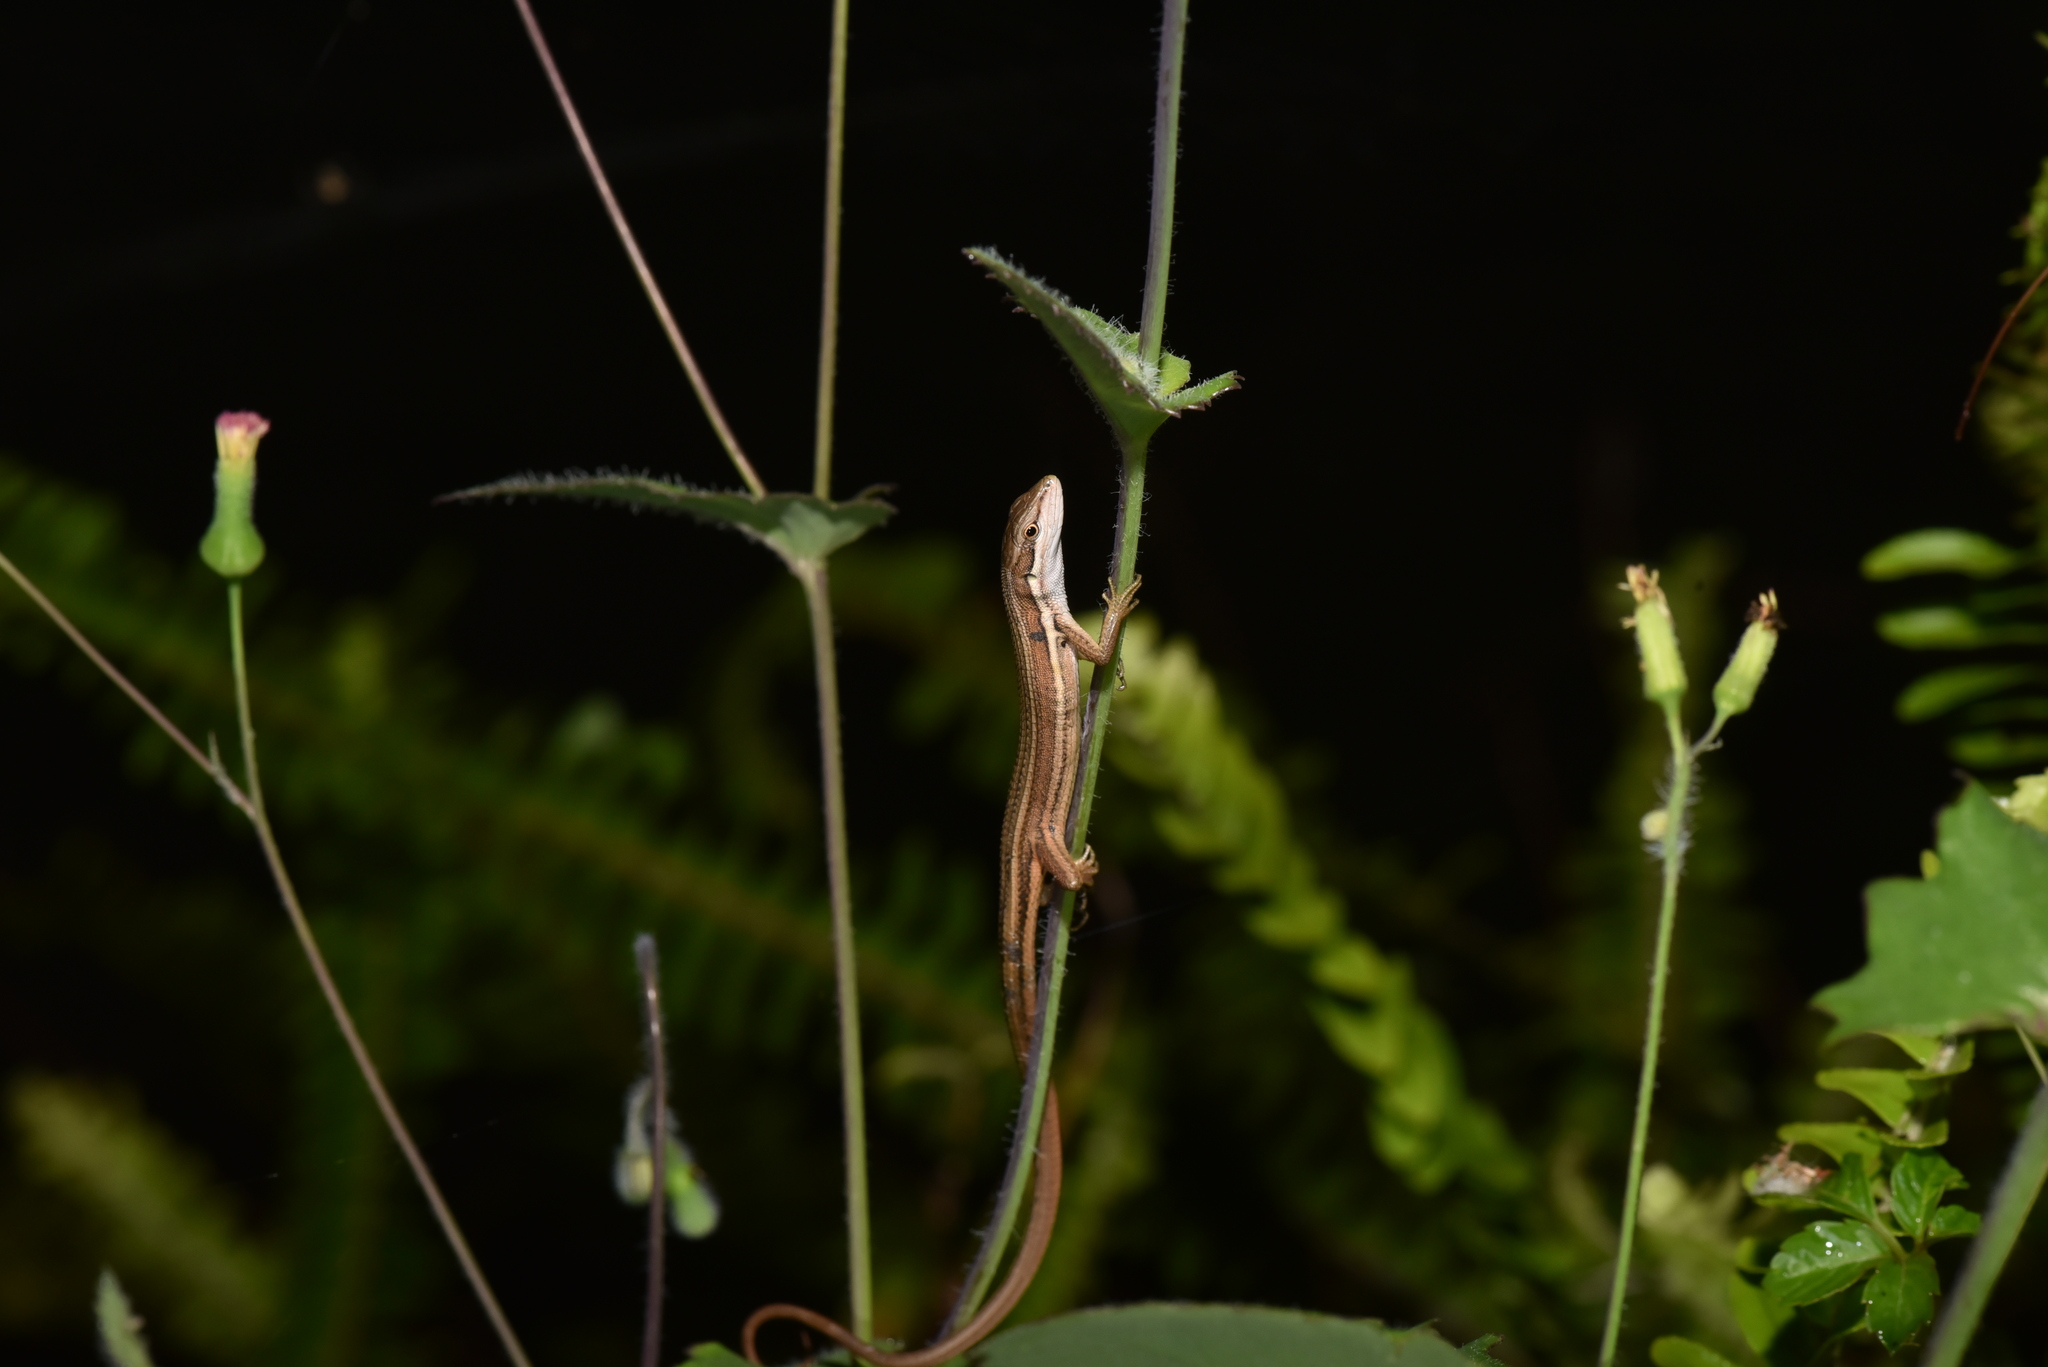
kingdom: Animalia
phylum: Chordata
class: Squamata
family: Lacertidae
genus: Takydromus
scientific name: Takydromus viridipunctatus
